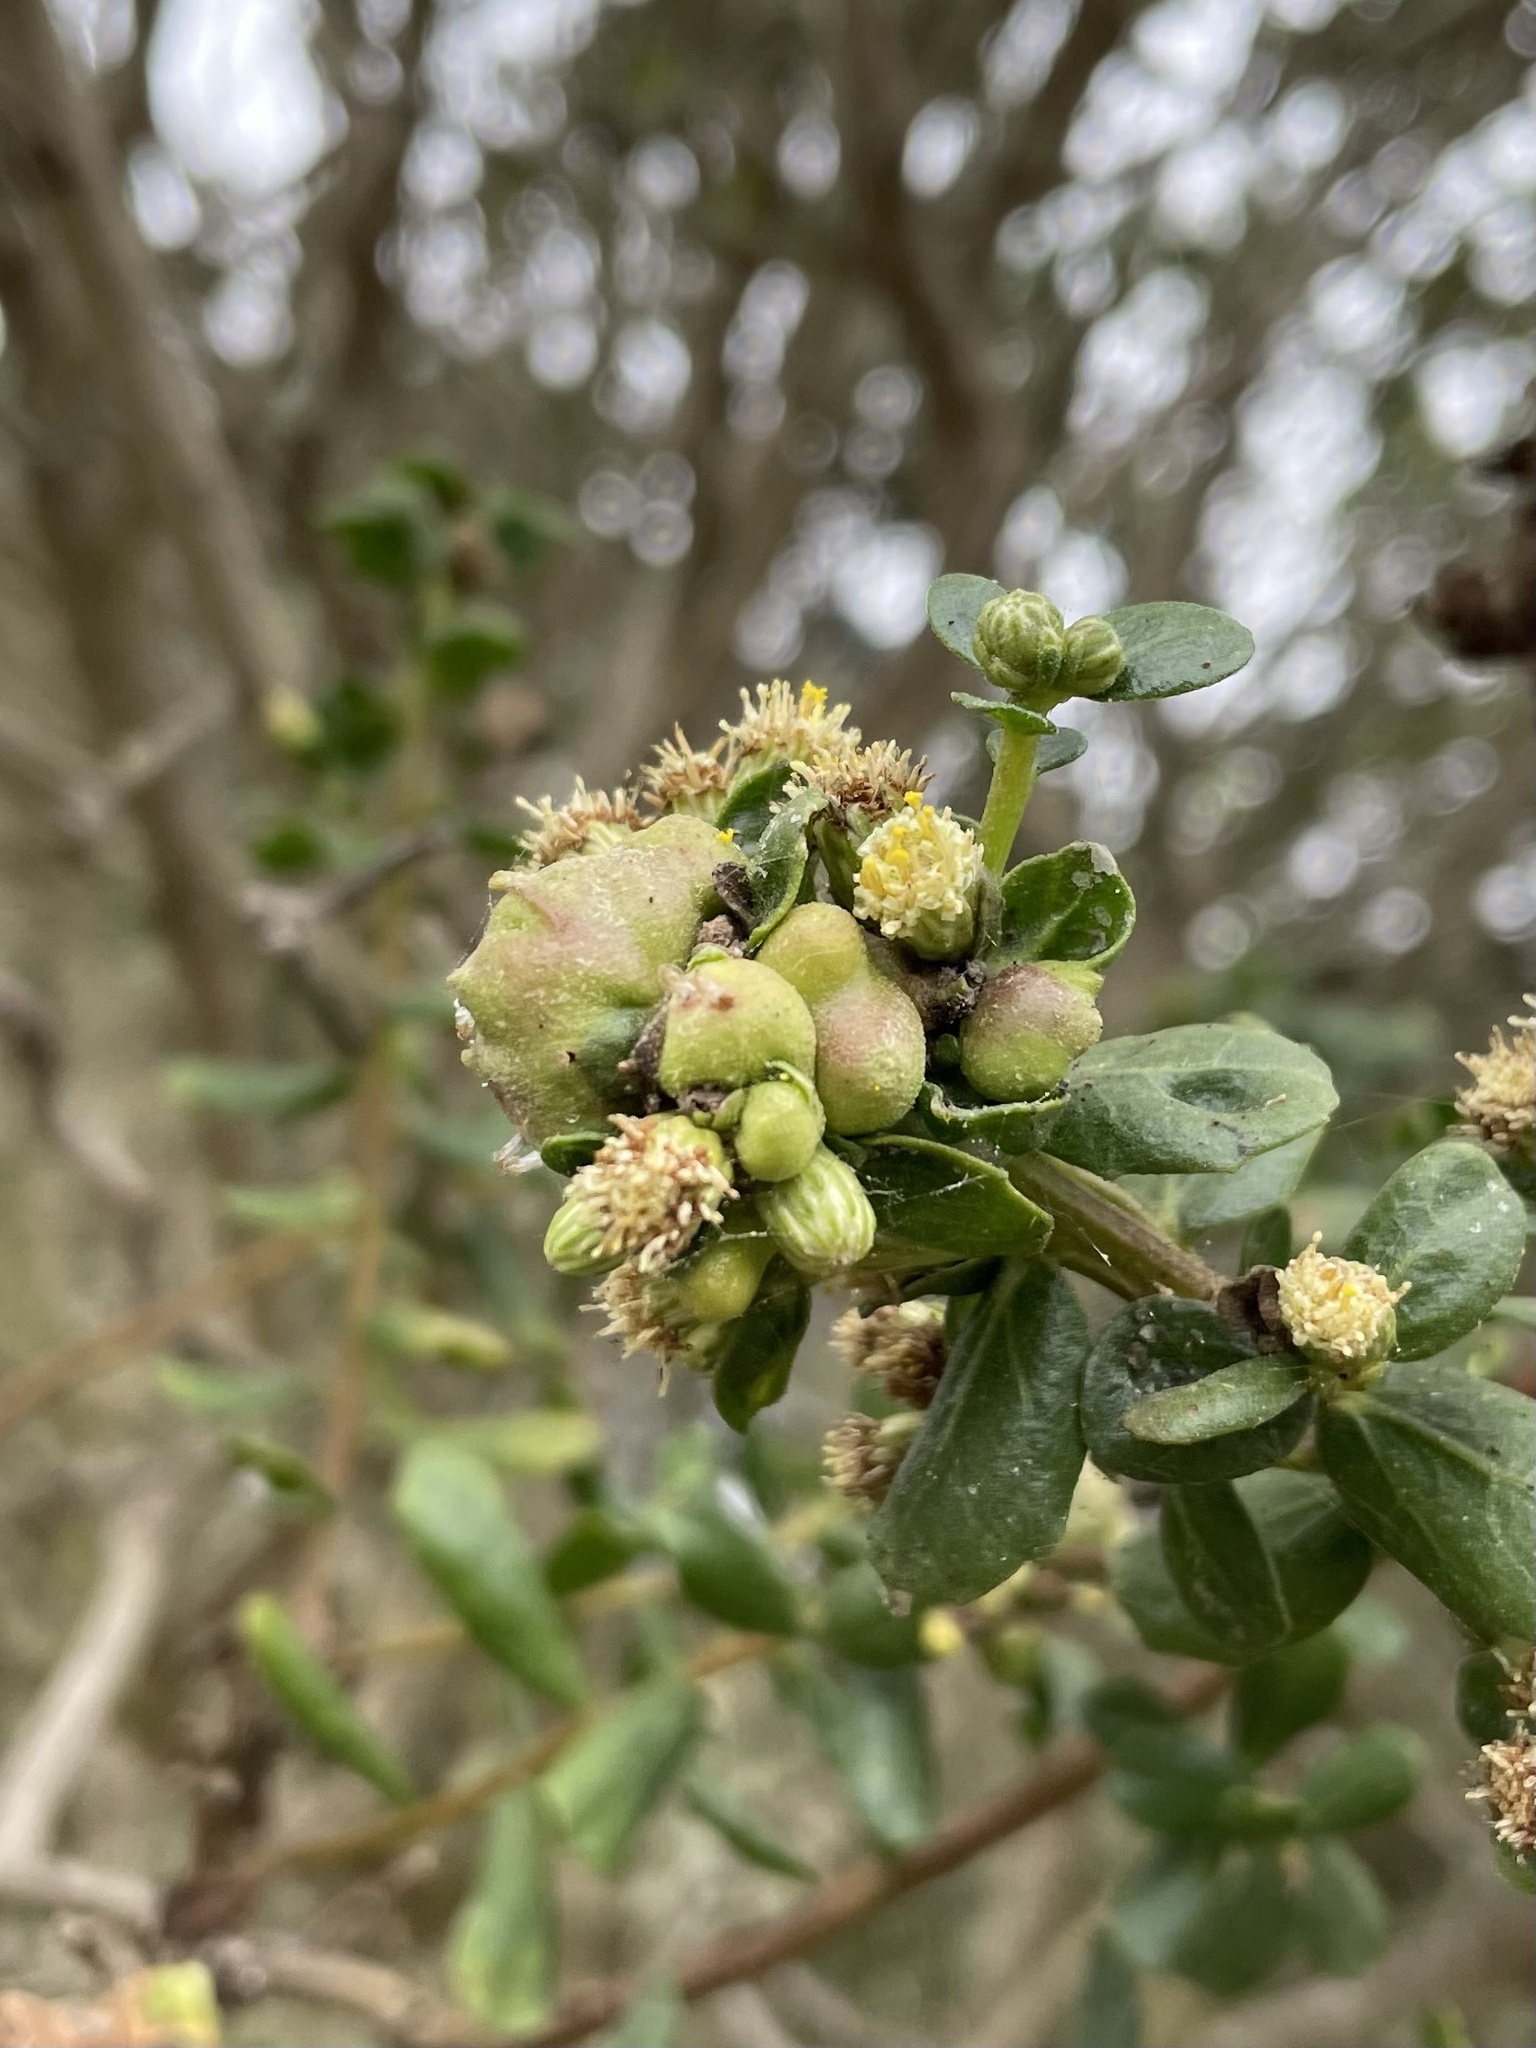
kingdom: Animalia
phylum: Arthropoda
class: Insecta
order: Diptera
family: Cecidomyiidae
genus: Rhopalomyia
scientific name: Rhopalomyia californica
